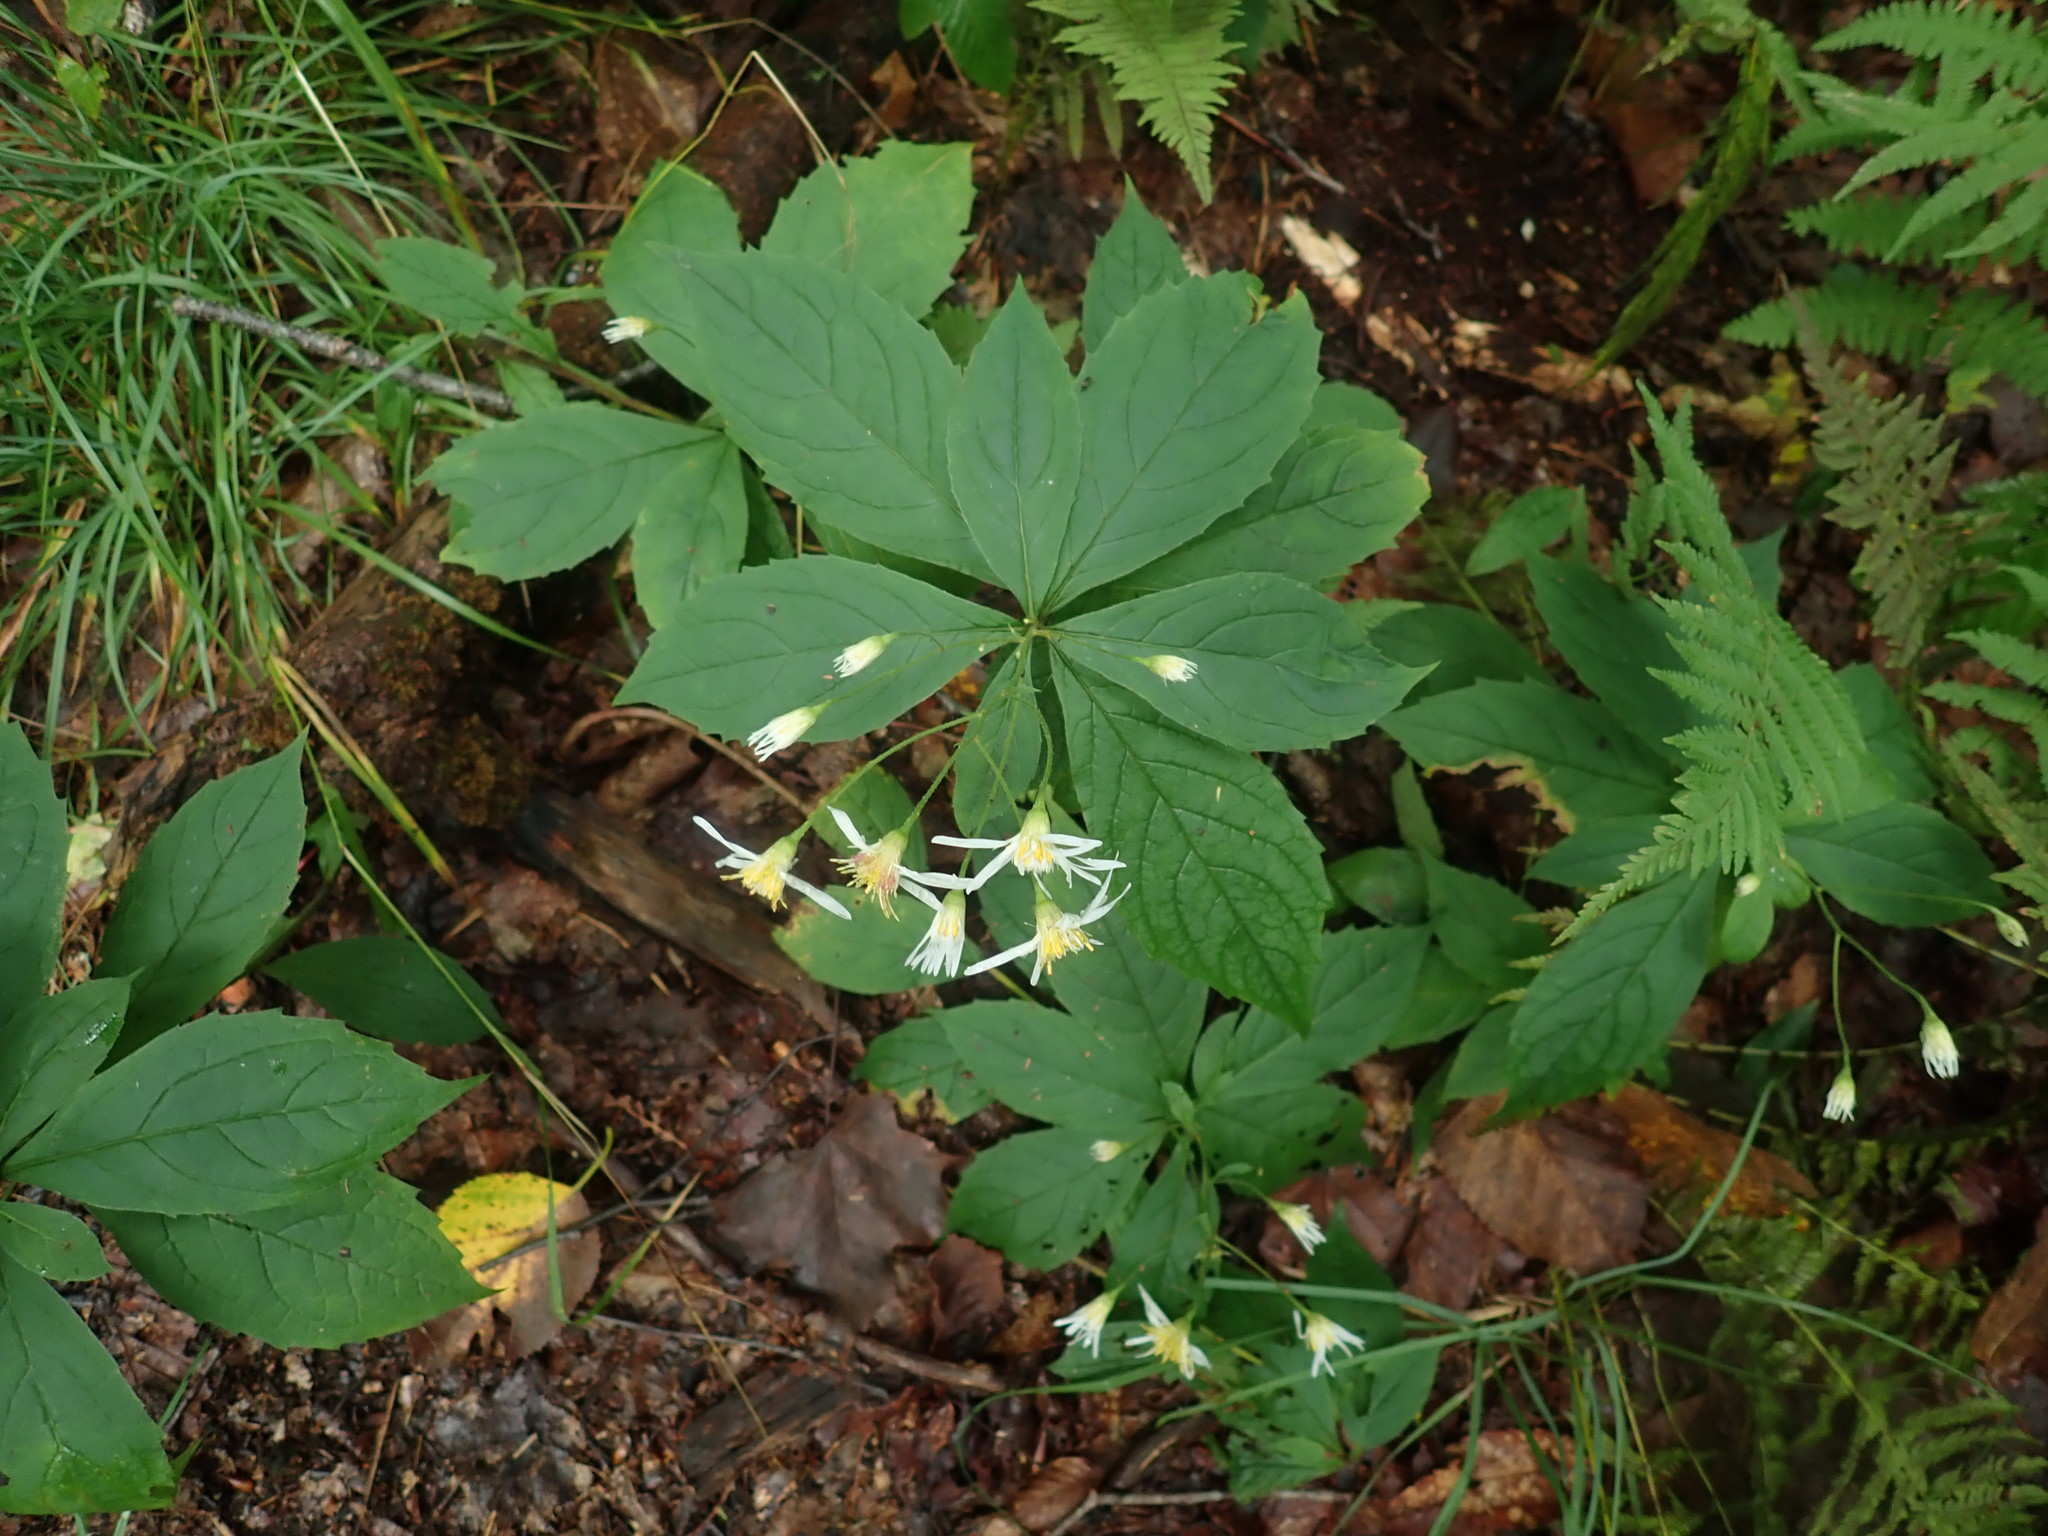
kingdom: Plantae
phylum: Tracheophyta
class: Magnoliopsida
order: Asterales
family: Asteraceae
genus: Oclemena
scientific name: Oclemena acuminata
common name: Mountain aster
